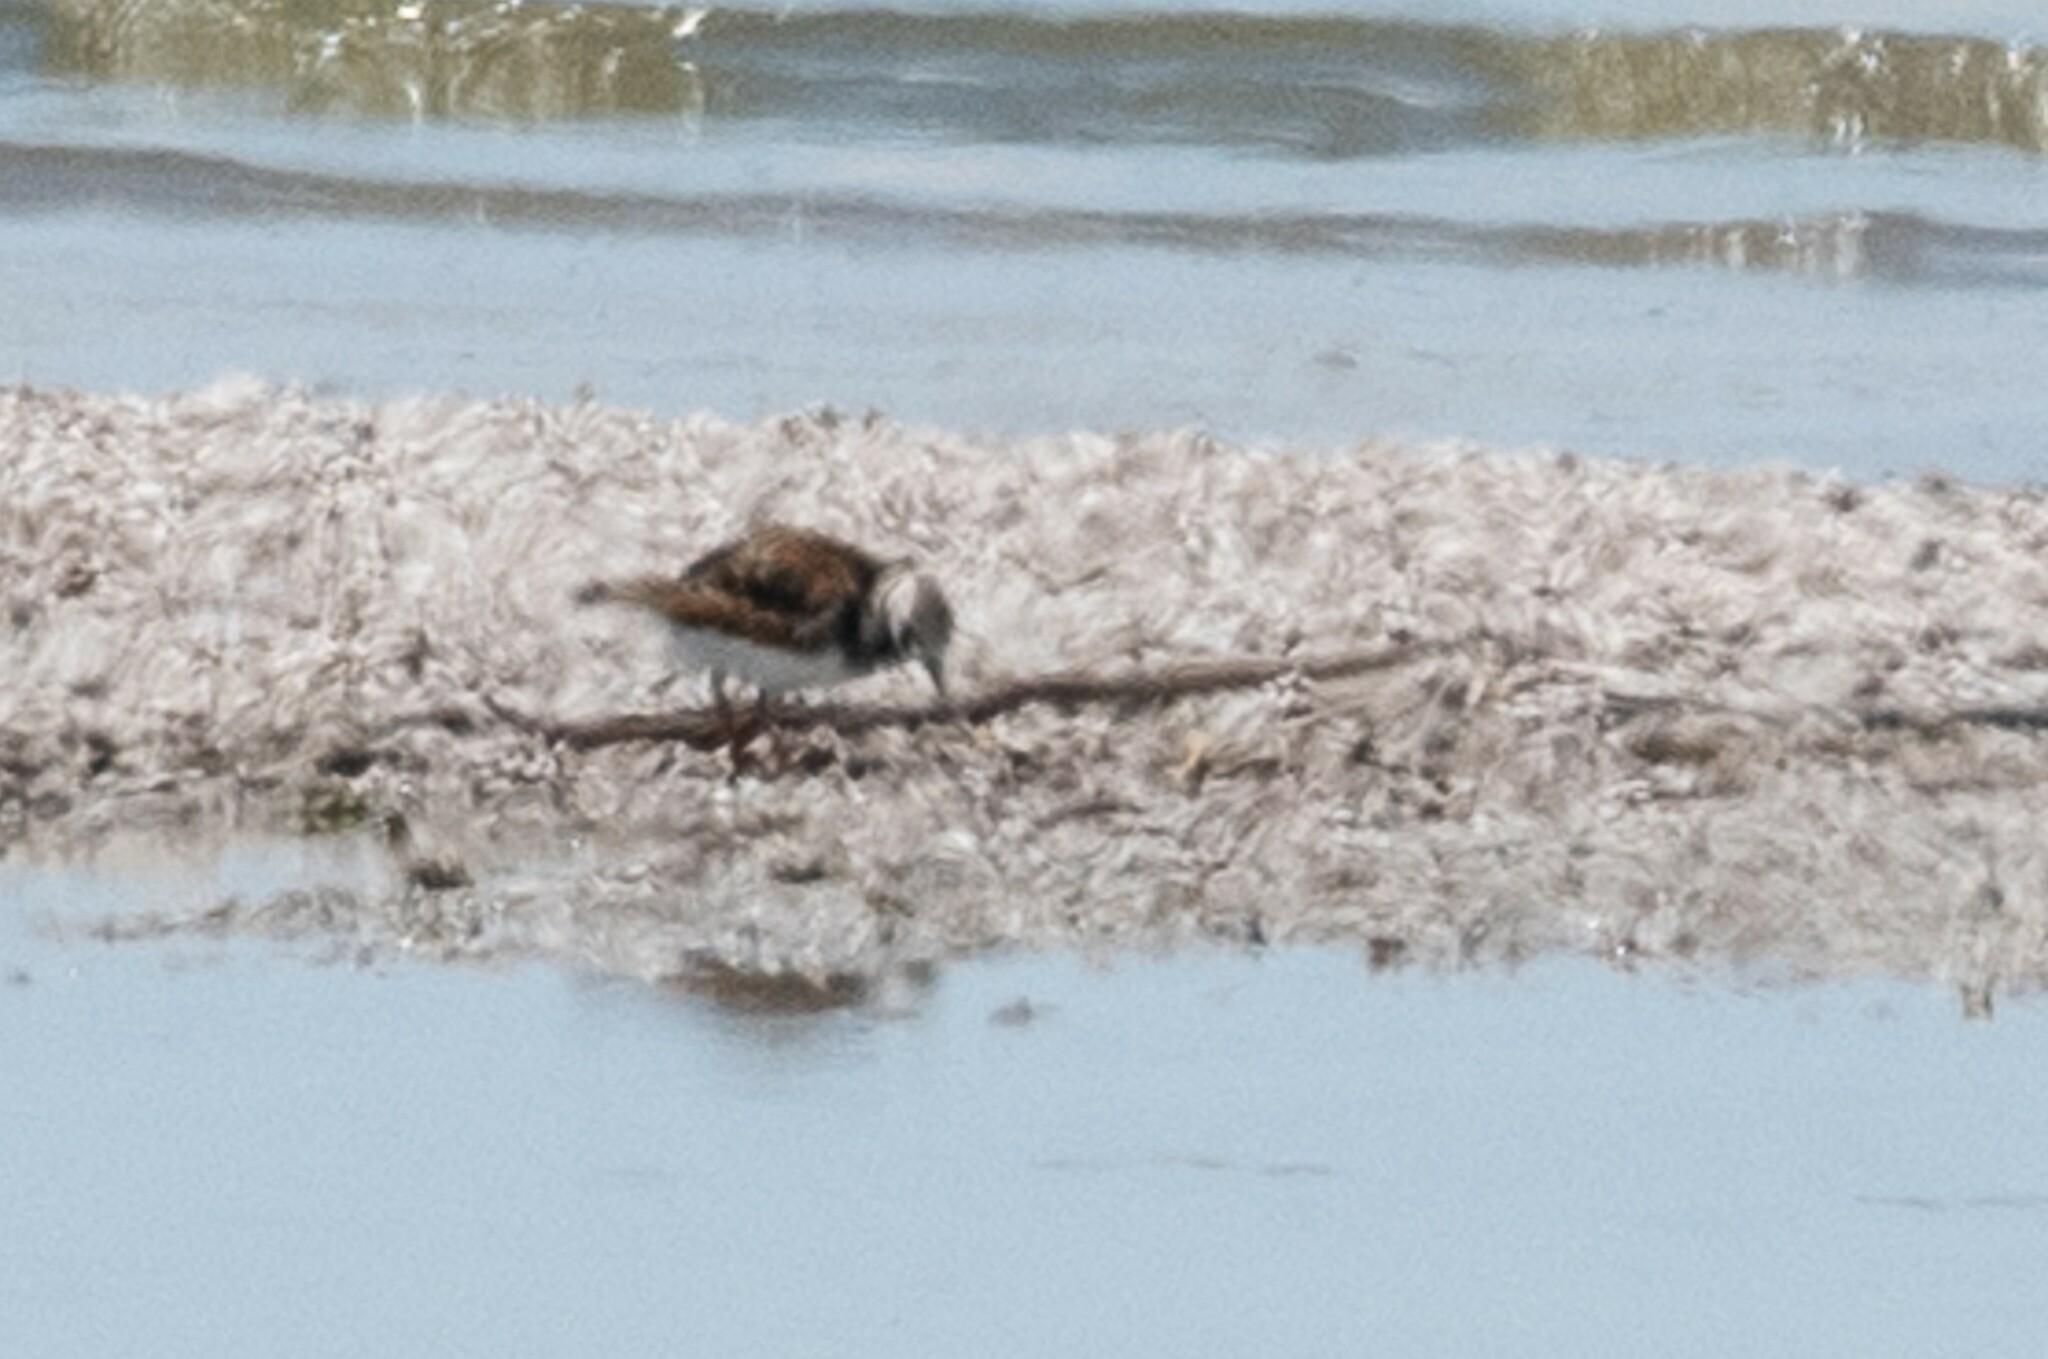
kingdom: Animalia
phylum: Chordata
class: Aves
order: Charadriiformes
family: Scolopacidae
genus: Arenaria
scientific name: Arenaria interpres
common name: Ruddy turnstone
